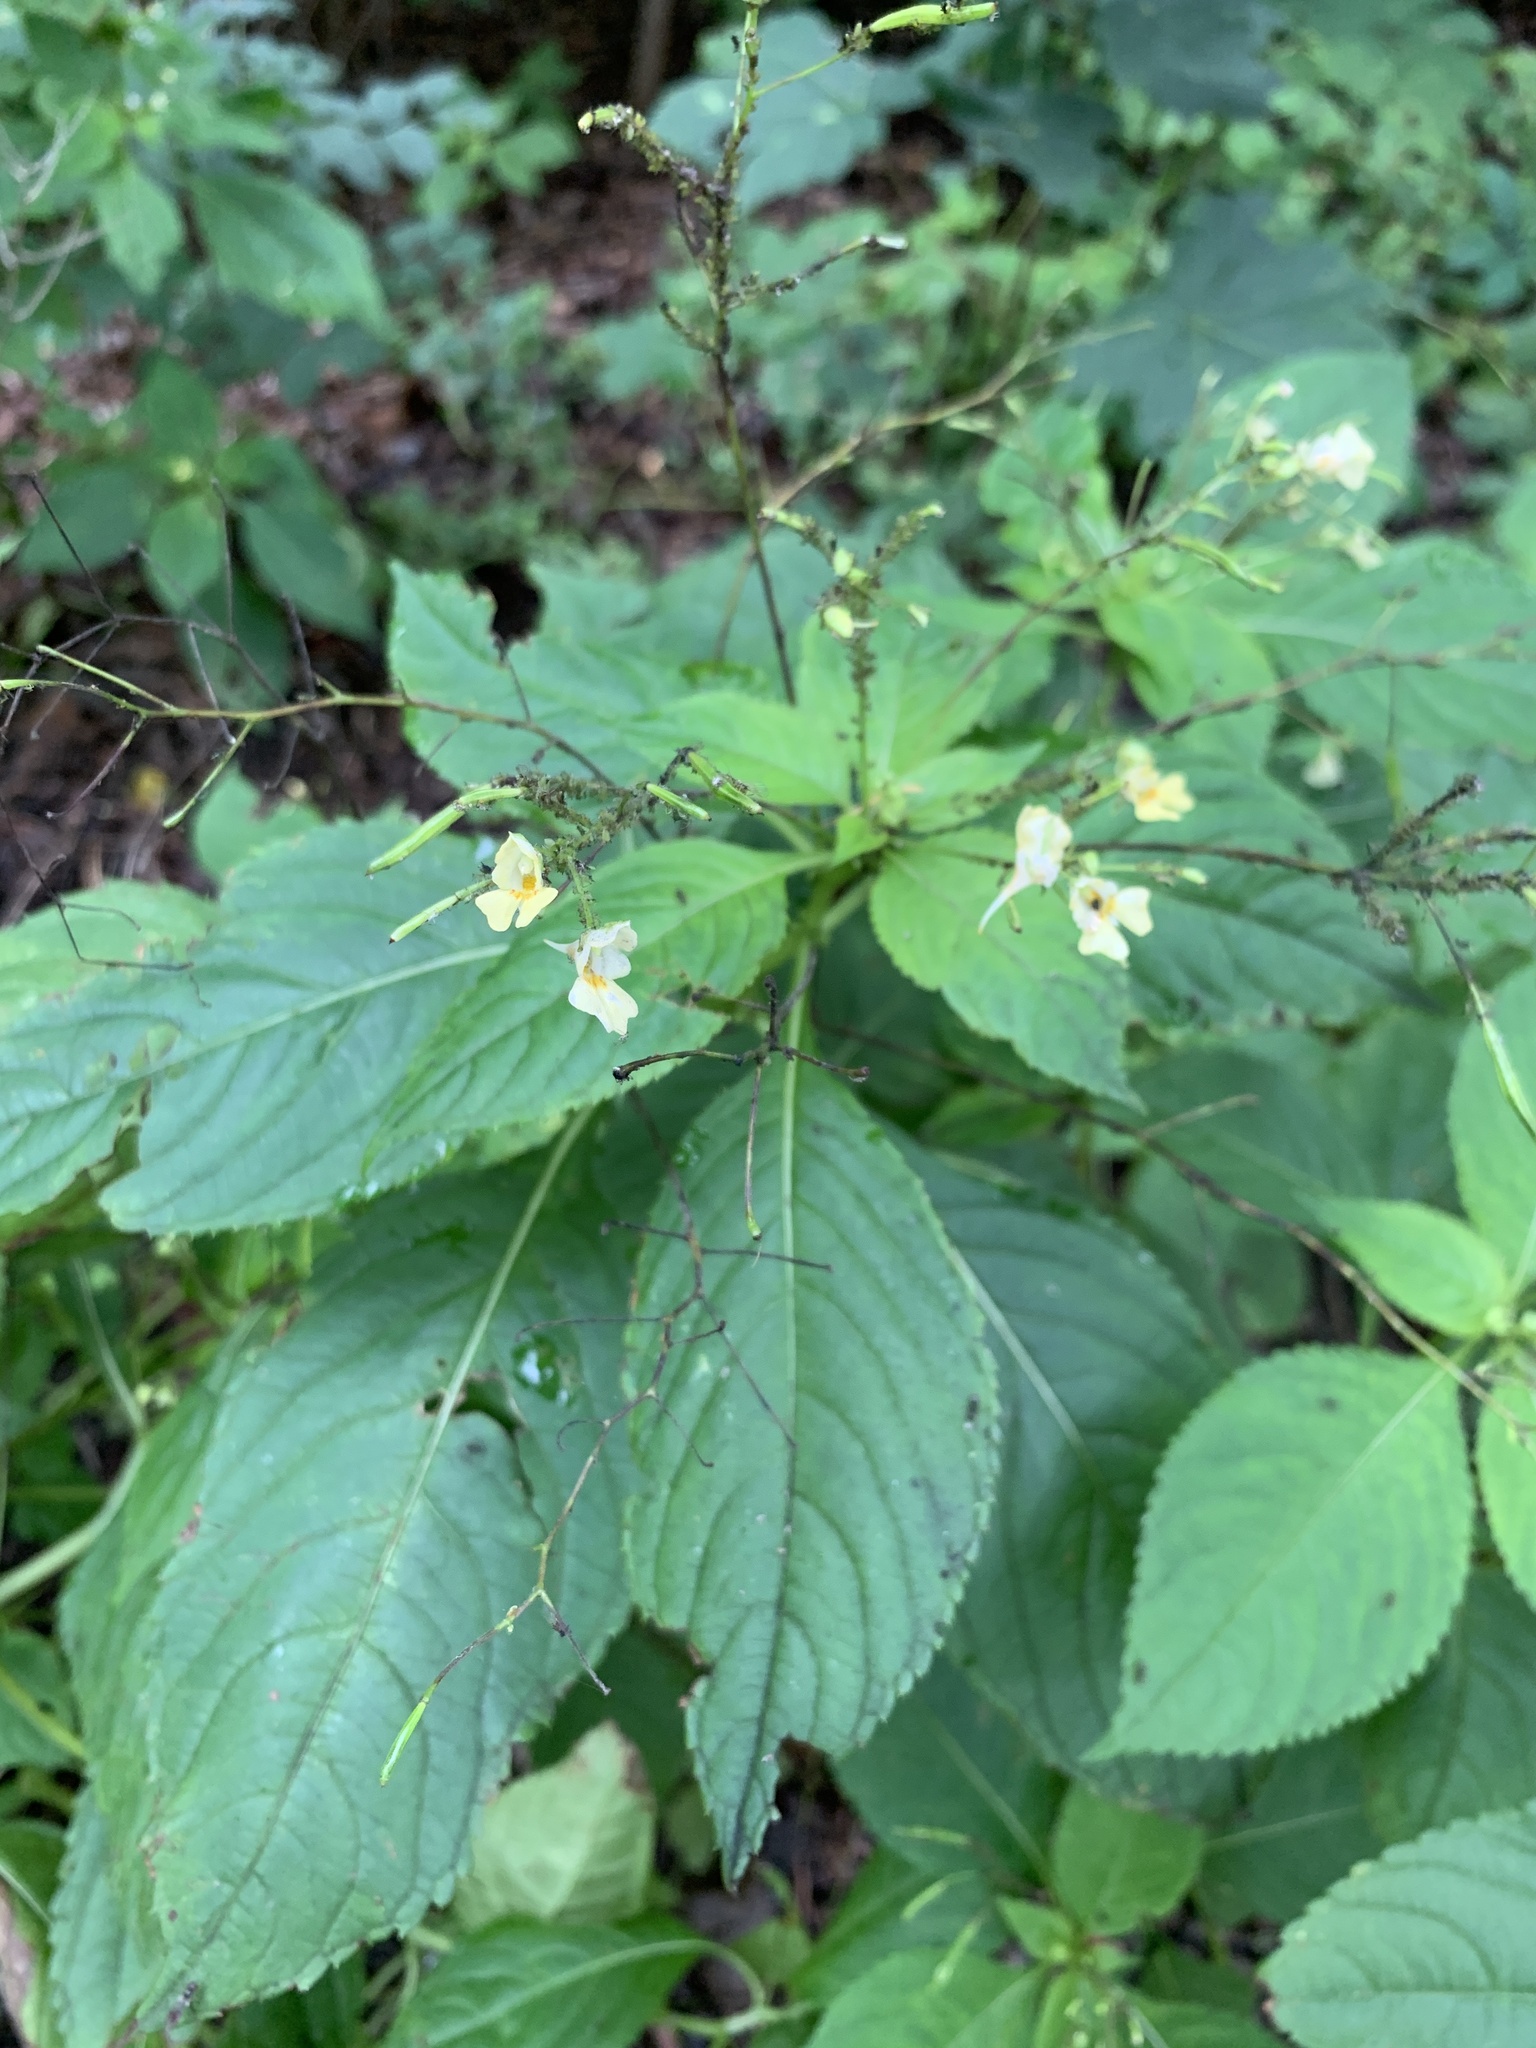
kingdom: Plantae
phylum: Tracheophyta
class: Magnoliopsida
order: Ericales
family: Balsaminaceae
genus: Impatiens
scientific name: Impatiens parviflora
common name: Small balsam
